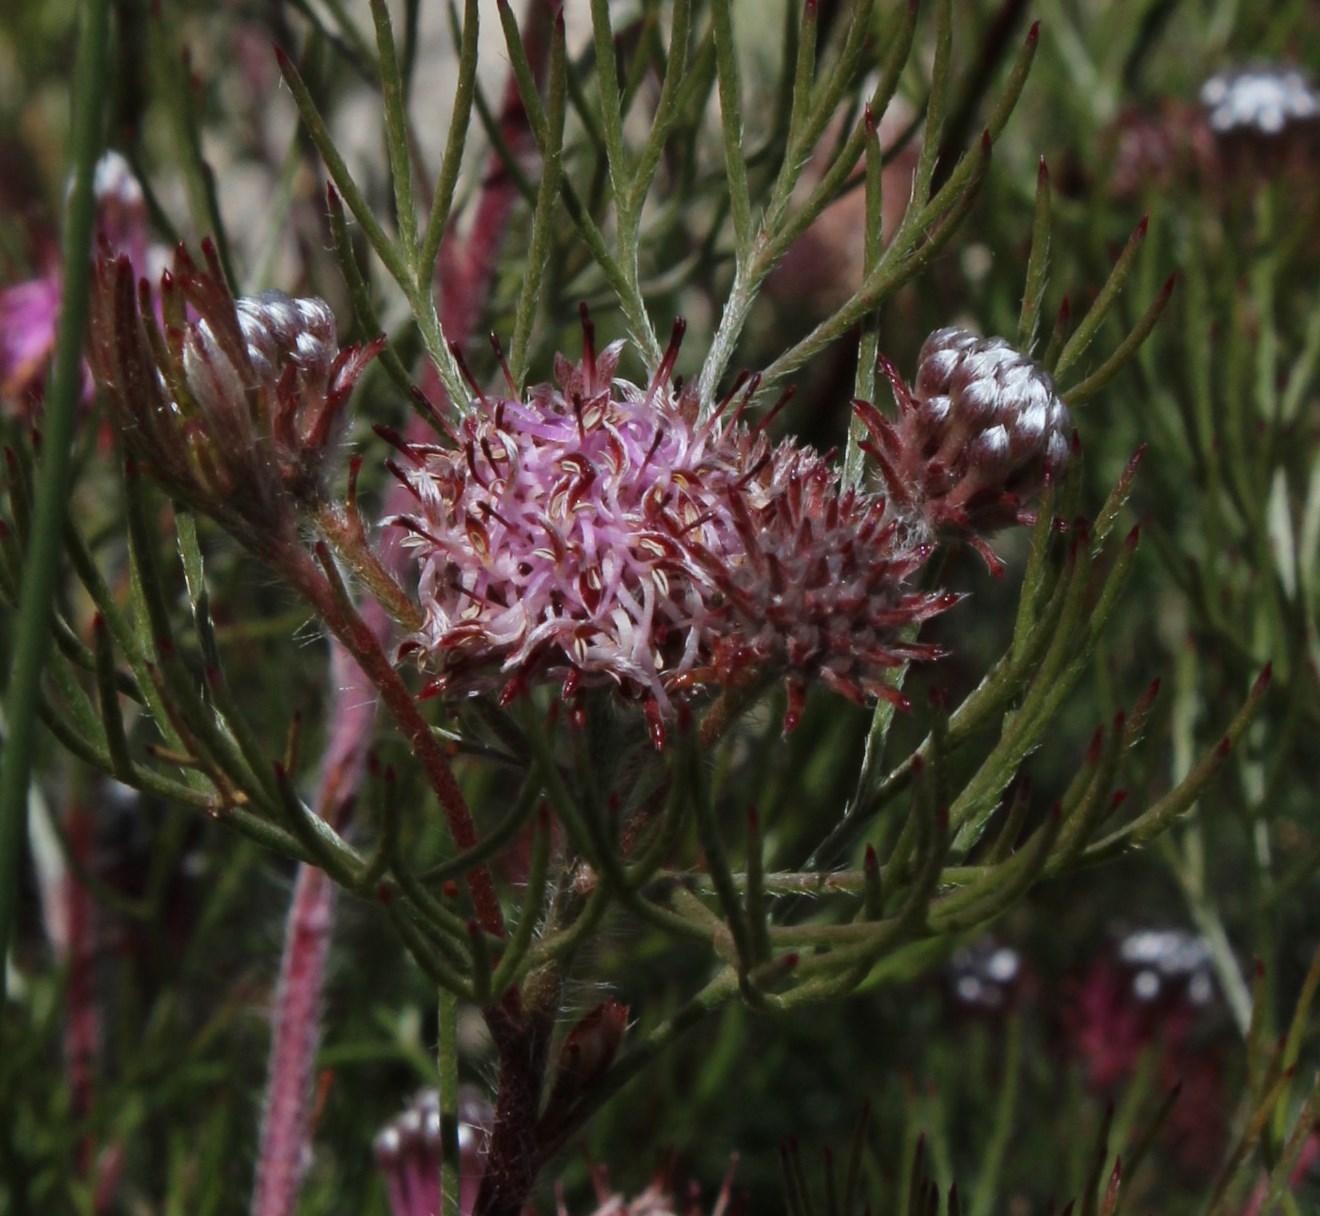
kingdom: Plantae
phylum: Tracheophyta
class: Magnoliopsida
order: Proteales
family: Proteaceae
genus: Serruria
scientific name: Serruria fasciflora
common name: Common pin spiderhead
